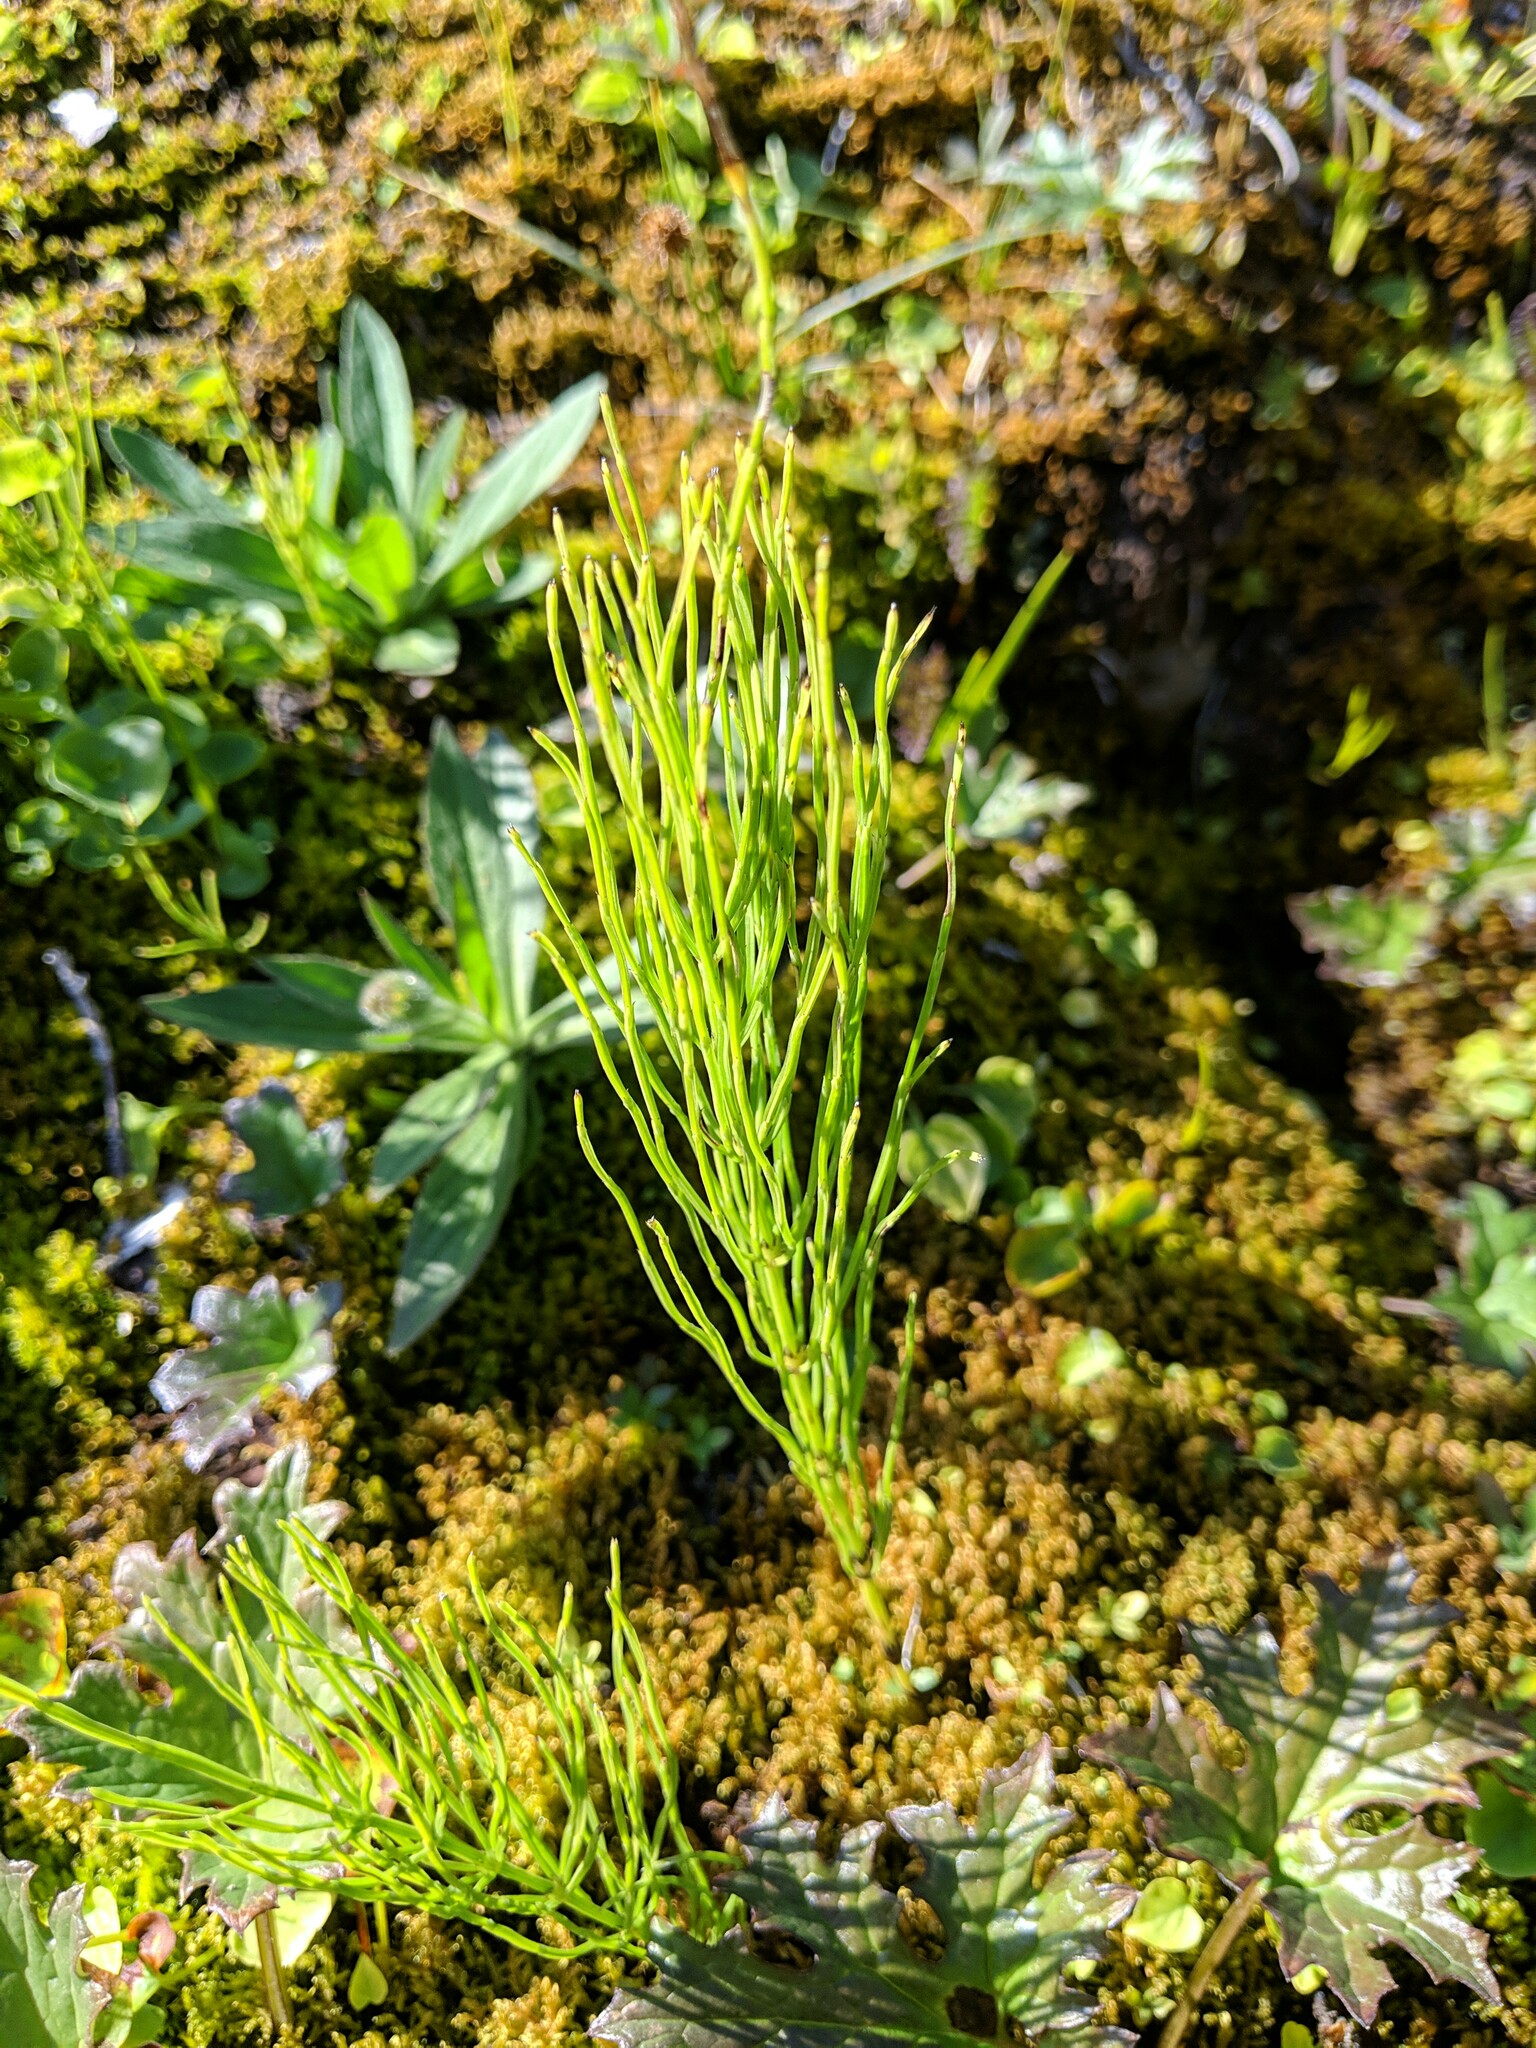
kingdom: Plantae
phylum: Tracheophyta
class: Polypodiopsida
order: Equisetales
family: Equisetaceae
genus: Equisetum
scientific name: Equisetum arvense
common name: Field horsetail
